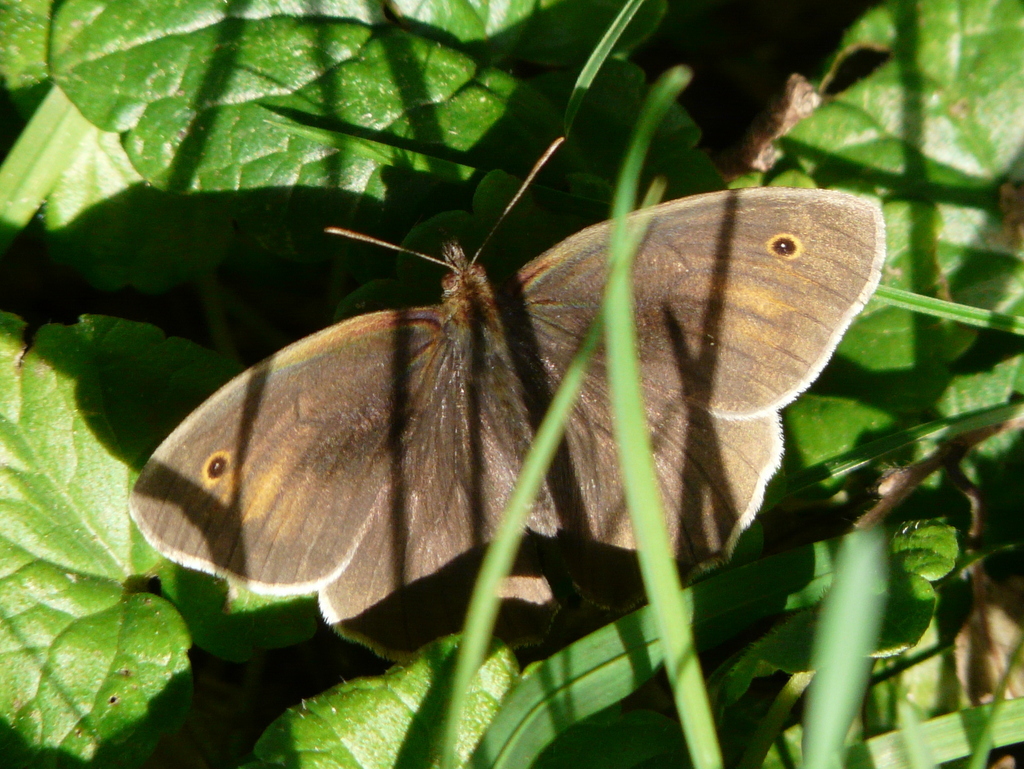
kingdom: Animalia
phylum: Arthropoda
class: Insecta
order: Lepidoptera
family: Nymphalidae
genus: Maniola
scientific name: Maniola jurtina
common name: Meadow brown
